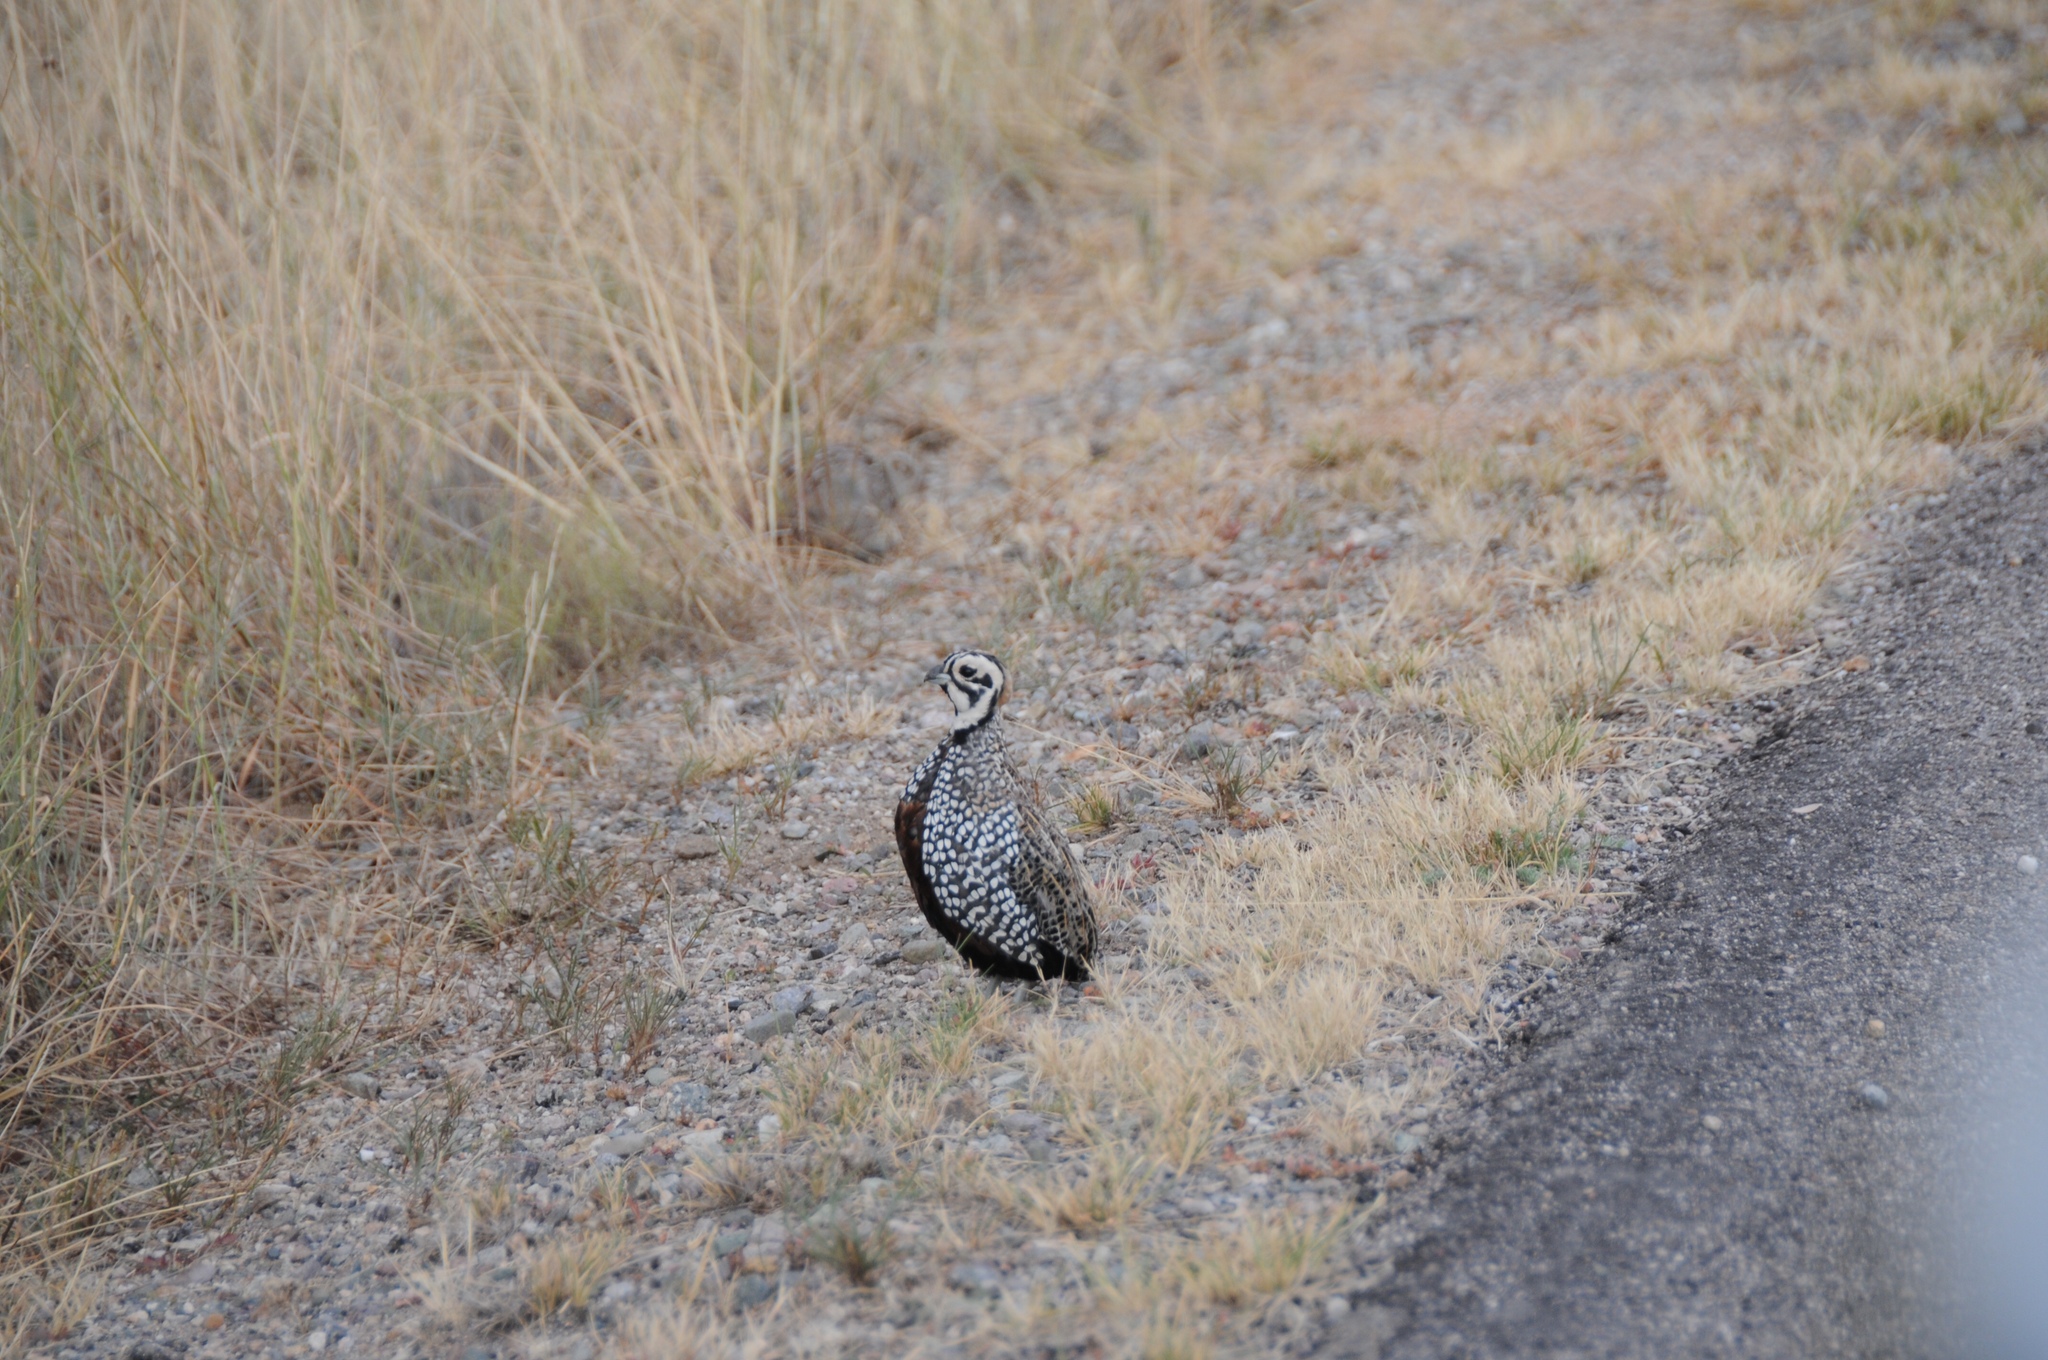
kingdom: Animalia
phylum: Chordata
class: Aves
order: Galliformes
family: Odontophoridae
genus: Cyrtonyx
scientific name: Cyrtonyx montezumae
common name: Montezuma quail
